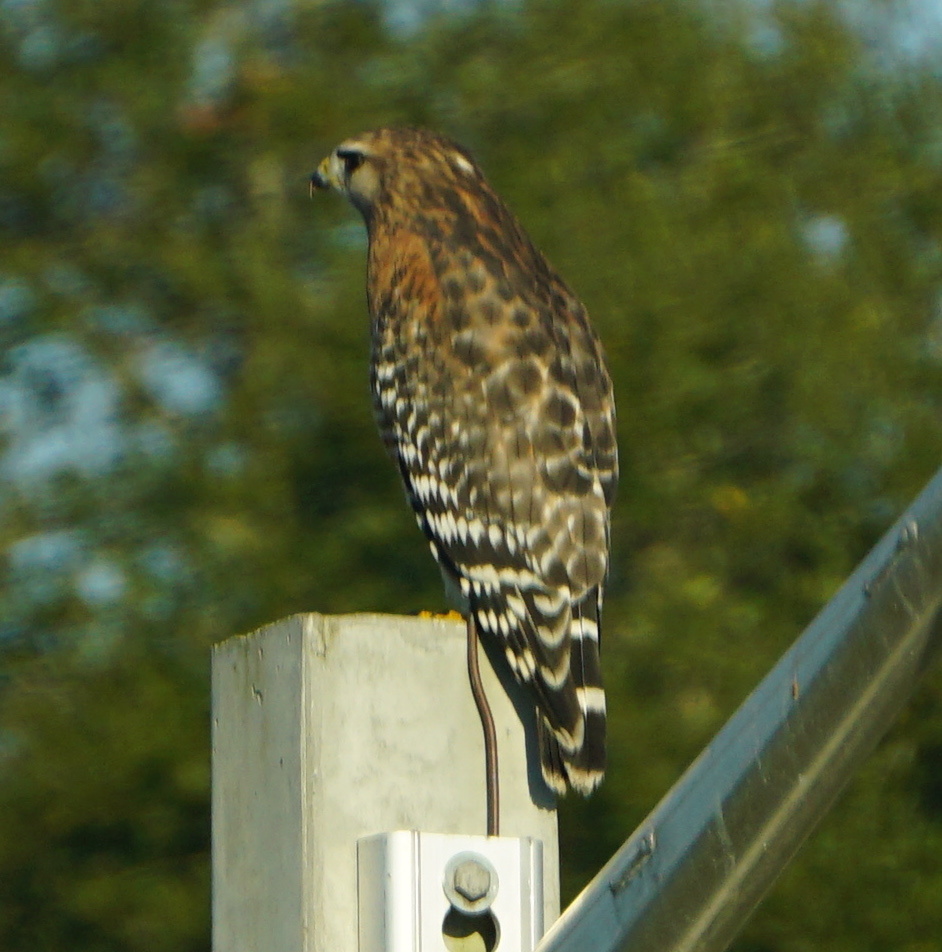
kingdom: Animalia
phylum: Chordata
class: Aves
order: Accipitriformes
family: Accipitridae
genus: Buteo
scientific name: Buteo lineatus
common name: Red-shouldered hawk
